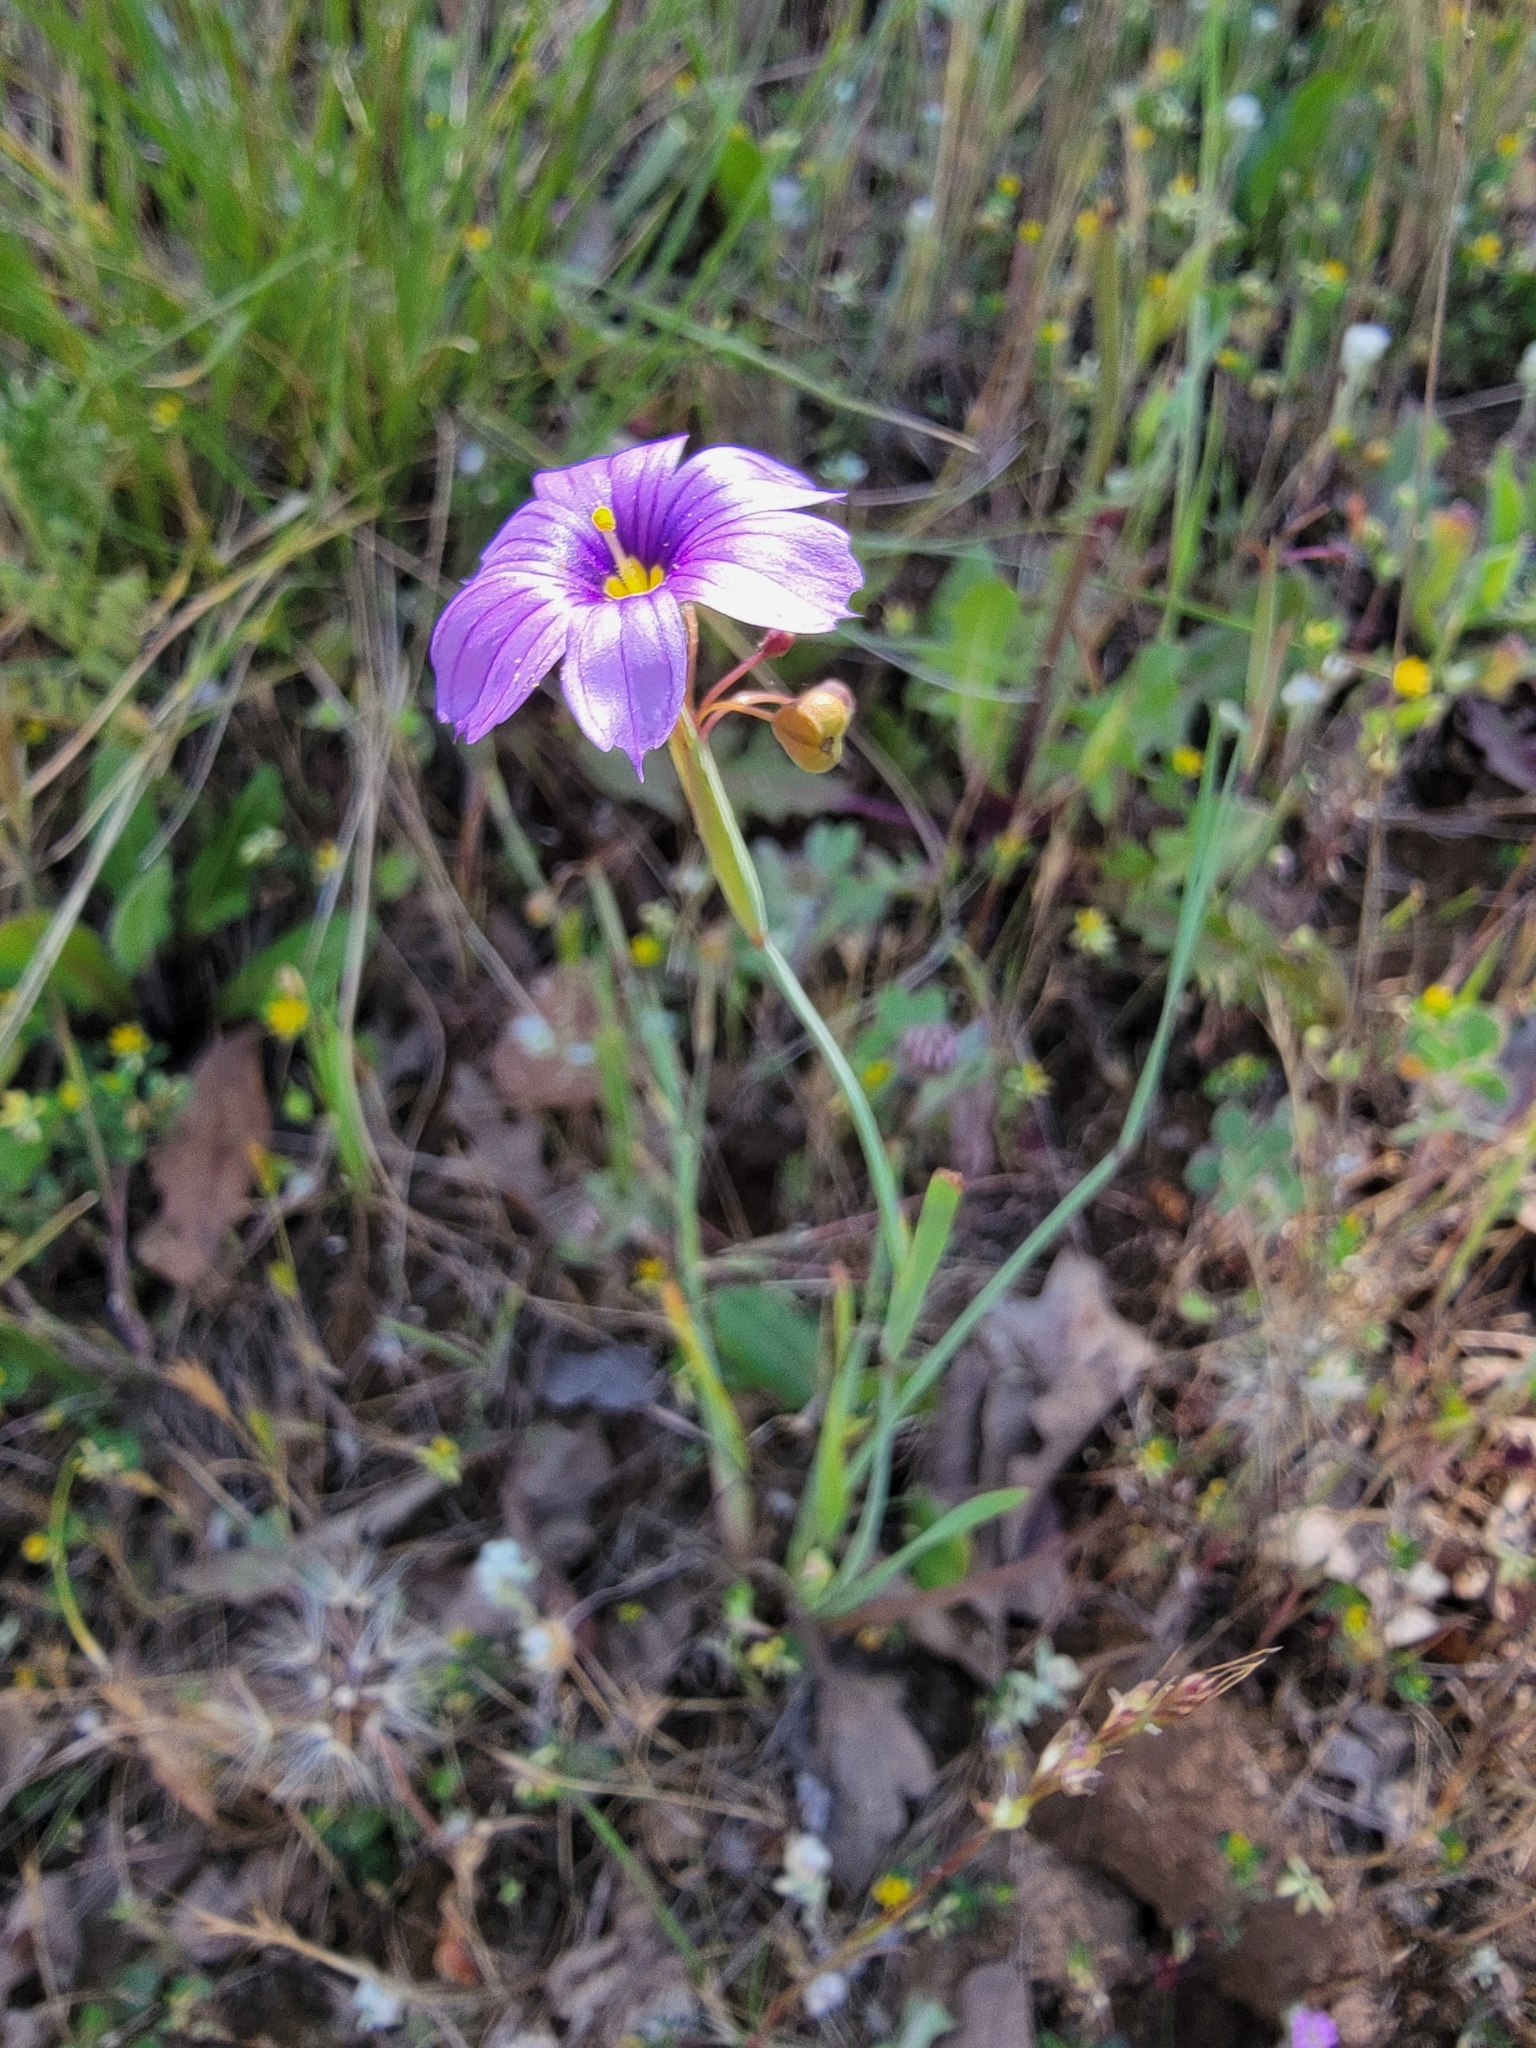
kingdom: Plantae
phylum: Tracheophyta
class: Liliopsida
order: Asparagales
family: Iridaceae
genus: Sisyrinchium
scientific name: Sisyrinchium bellum
